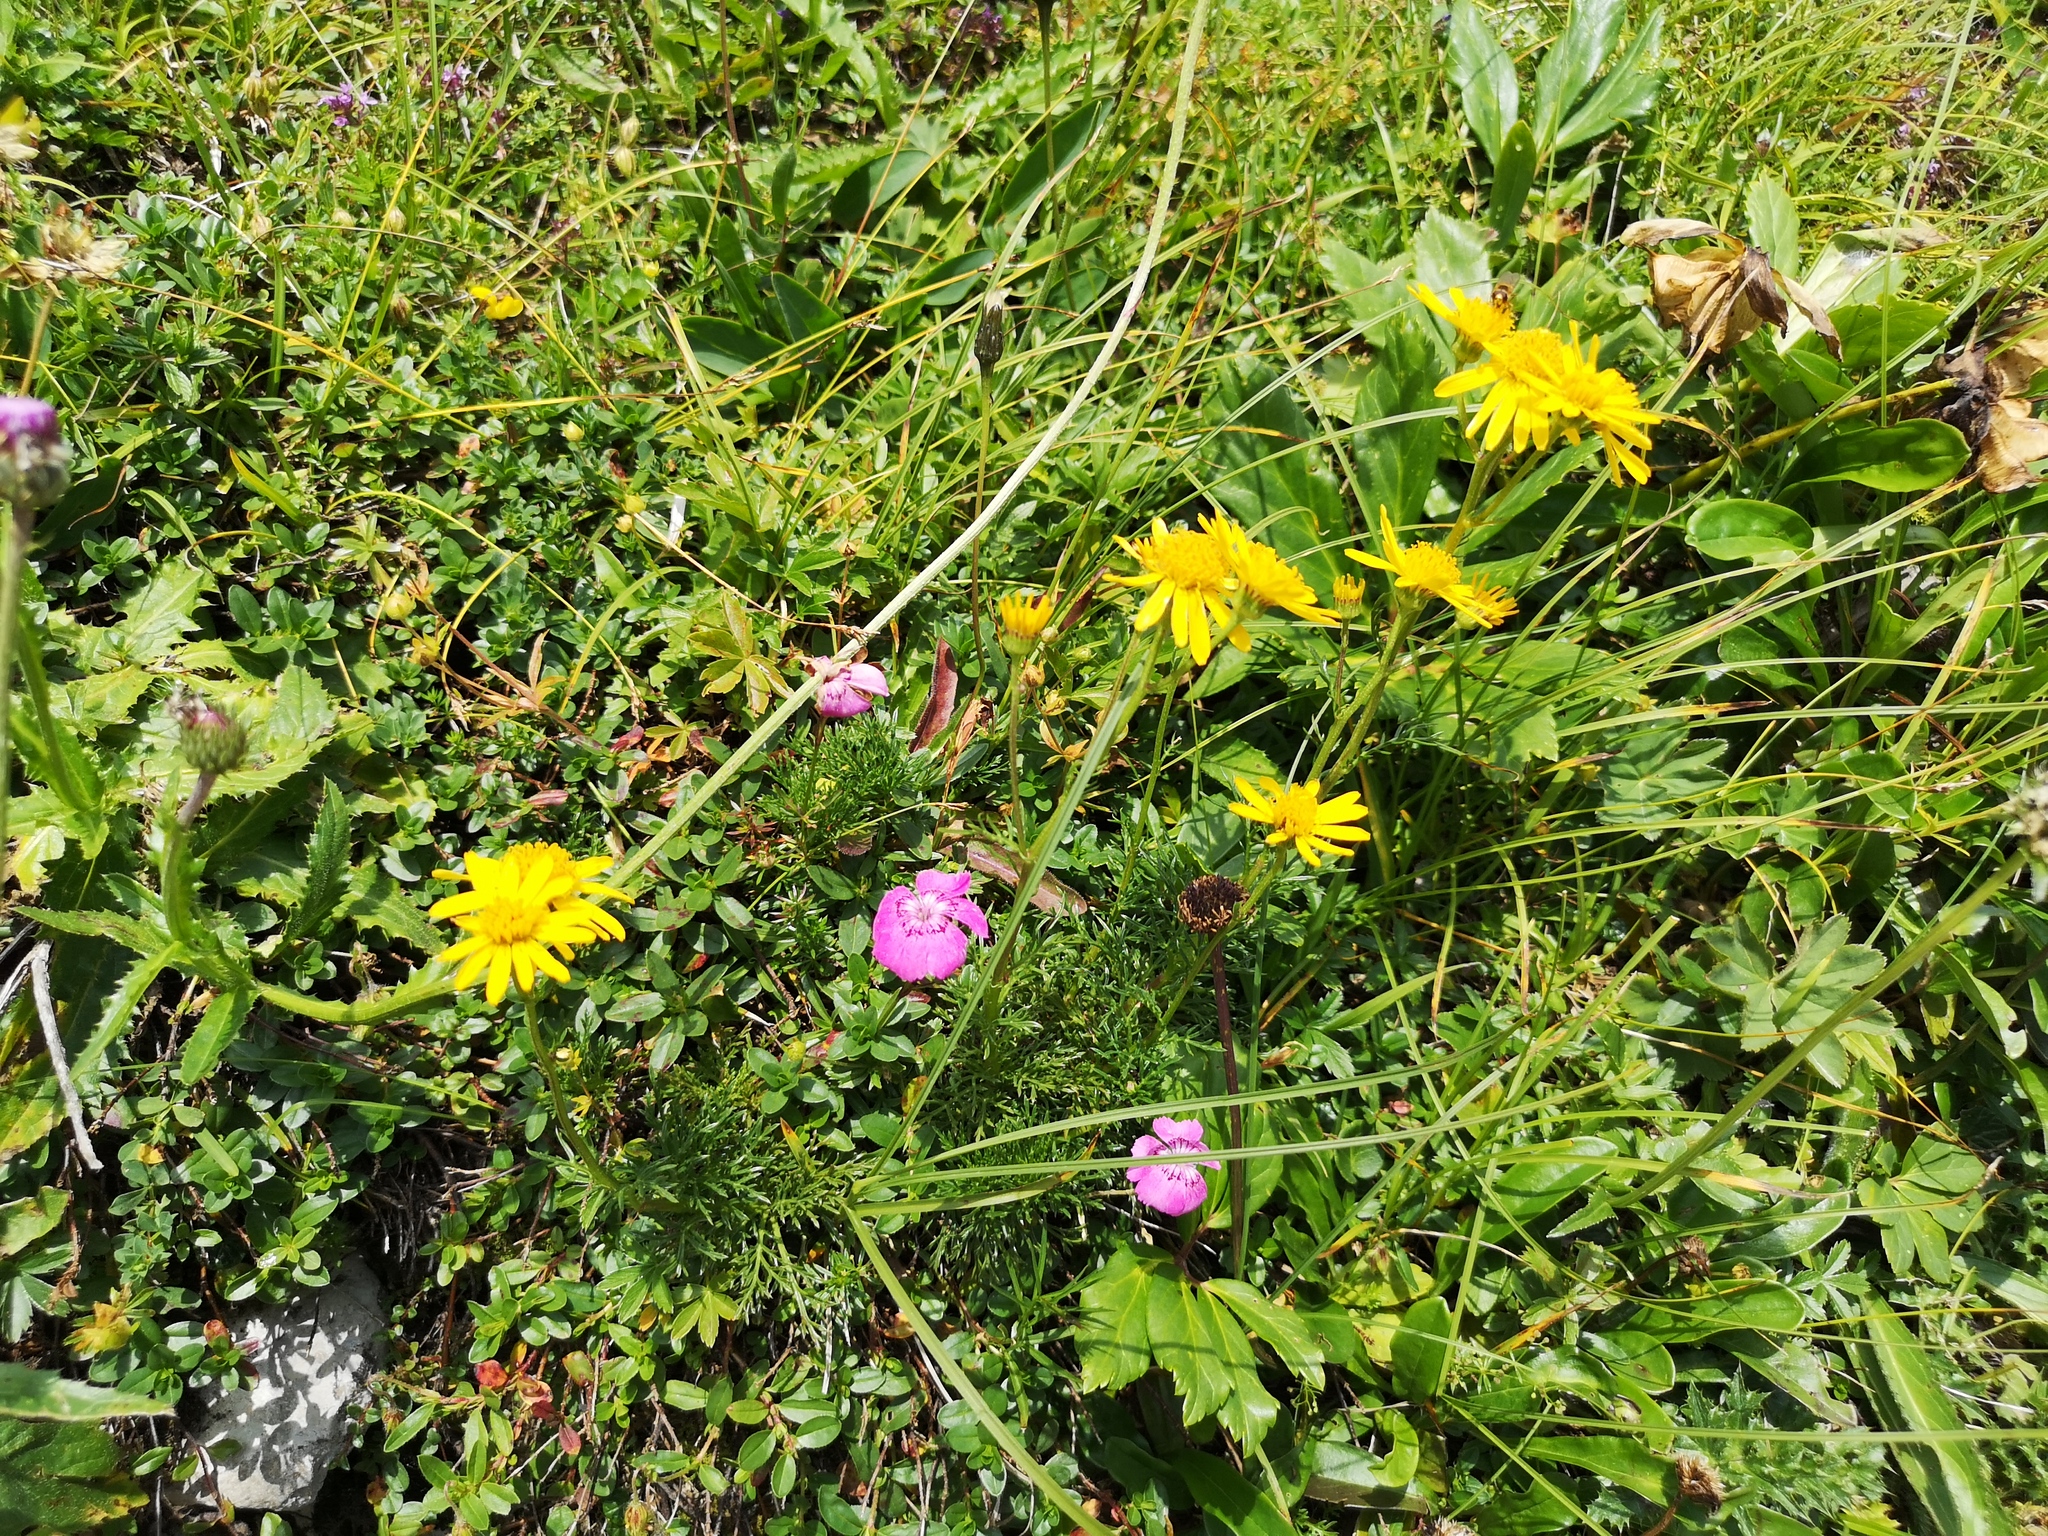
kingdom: Plantae
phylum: Tracheophyta
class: Magnoliopsida
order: Asterales
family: Asteraceae
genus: Jacobaea
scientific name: Jacobaea abrotanifolia
